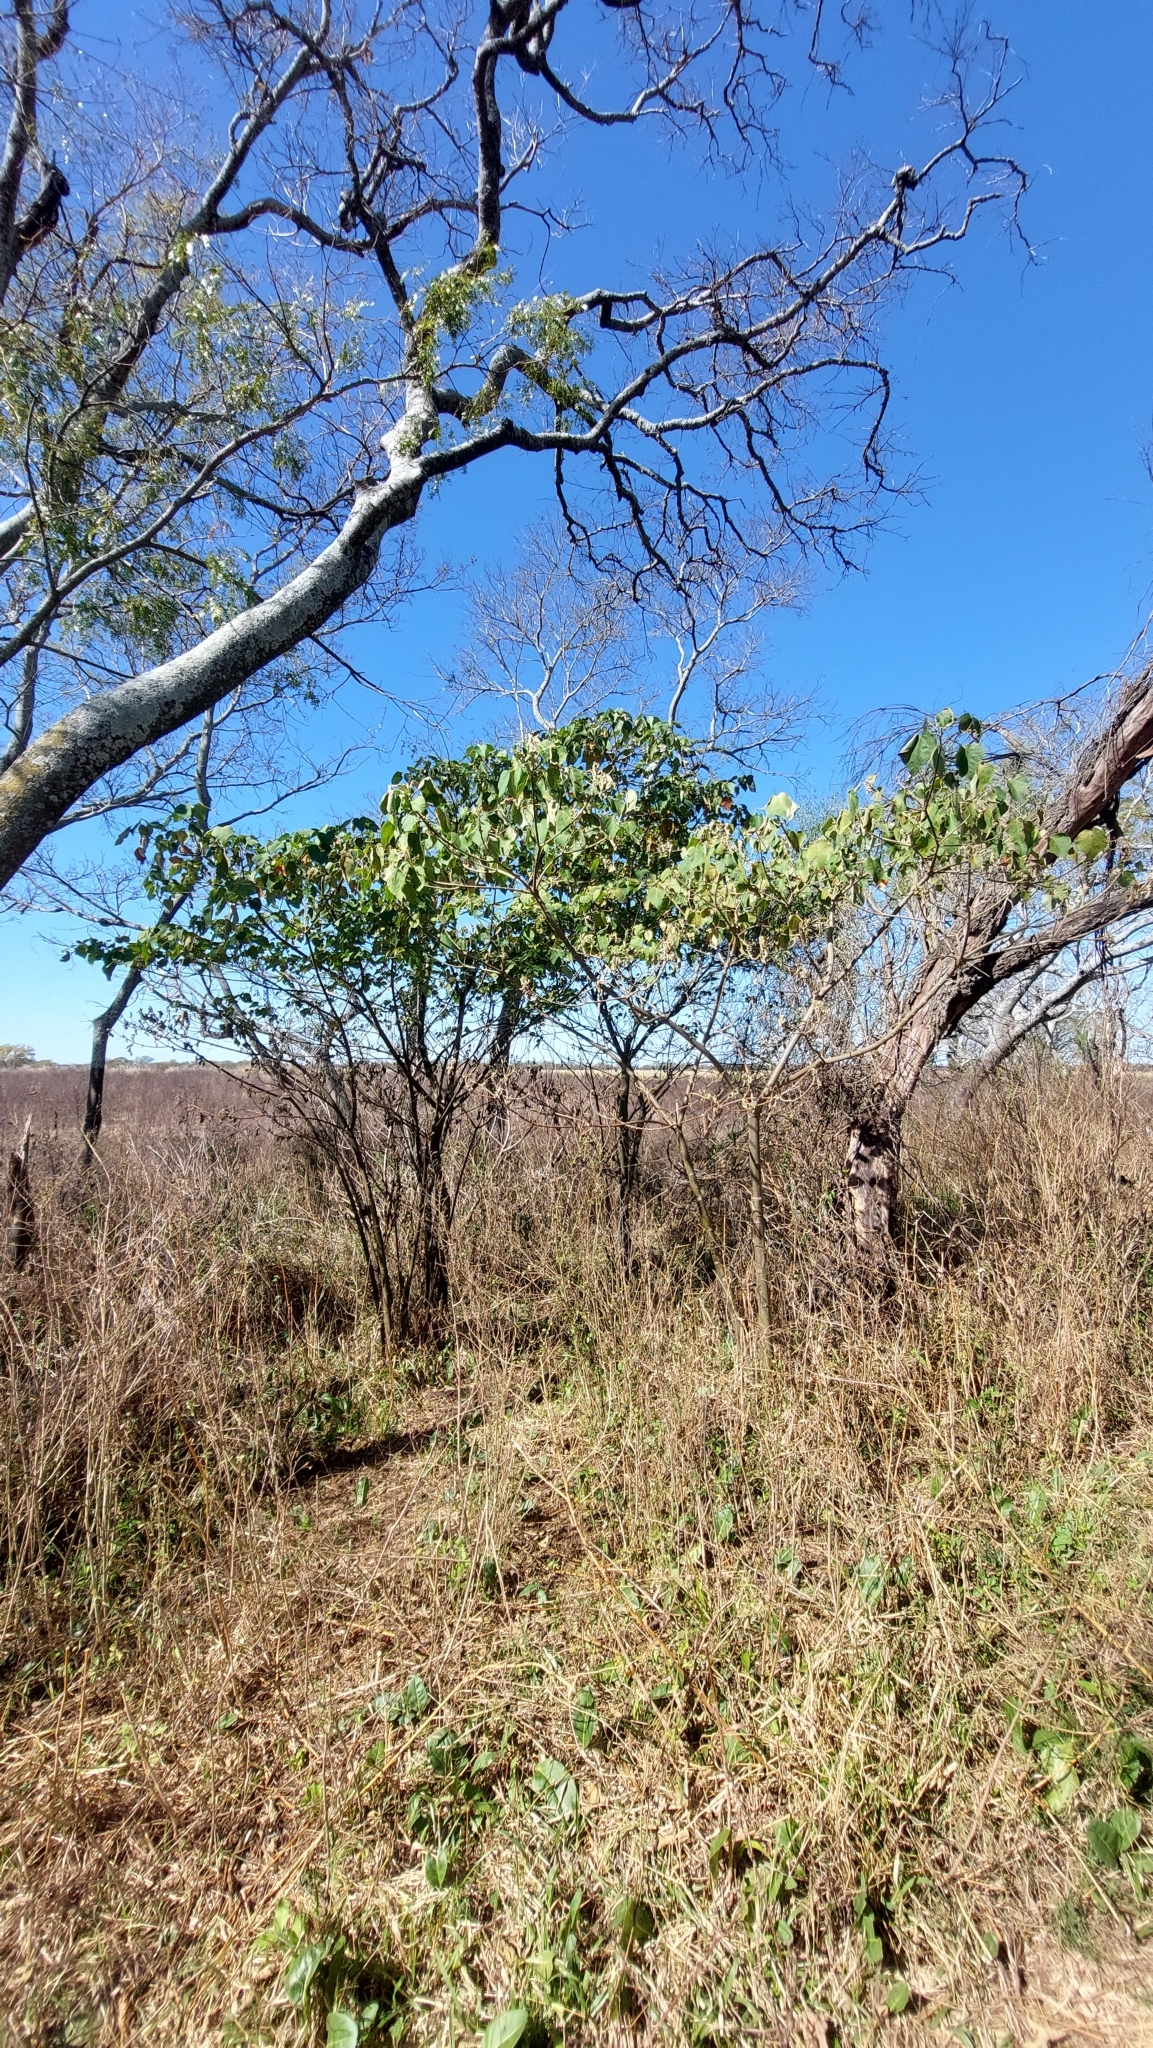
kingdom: Plantae
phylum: Tracheophyta
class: Magnoliopsida
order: Malpighiales
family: Euphorbiaceae
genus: Croton
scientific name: Croton urucurana
